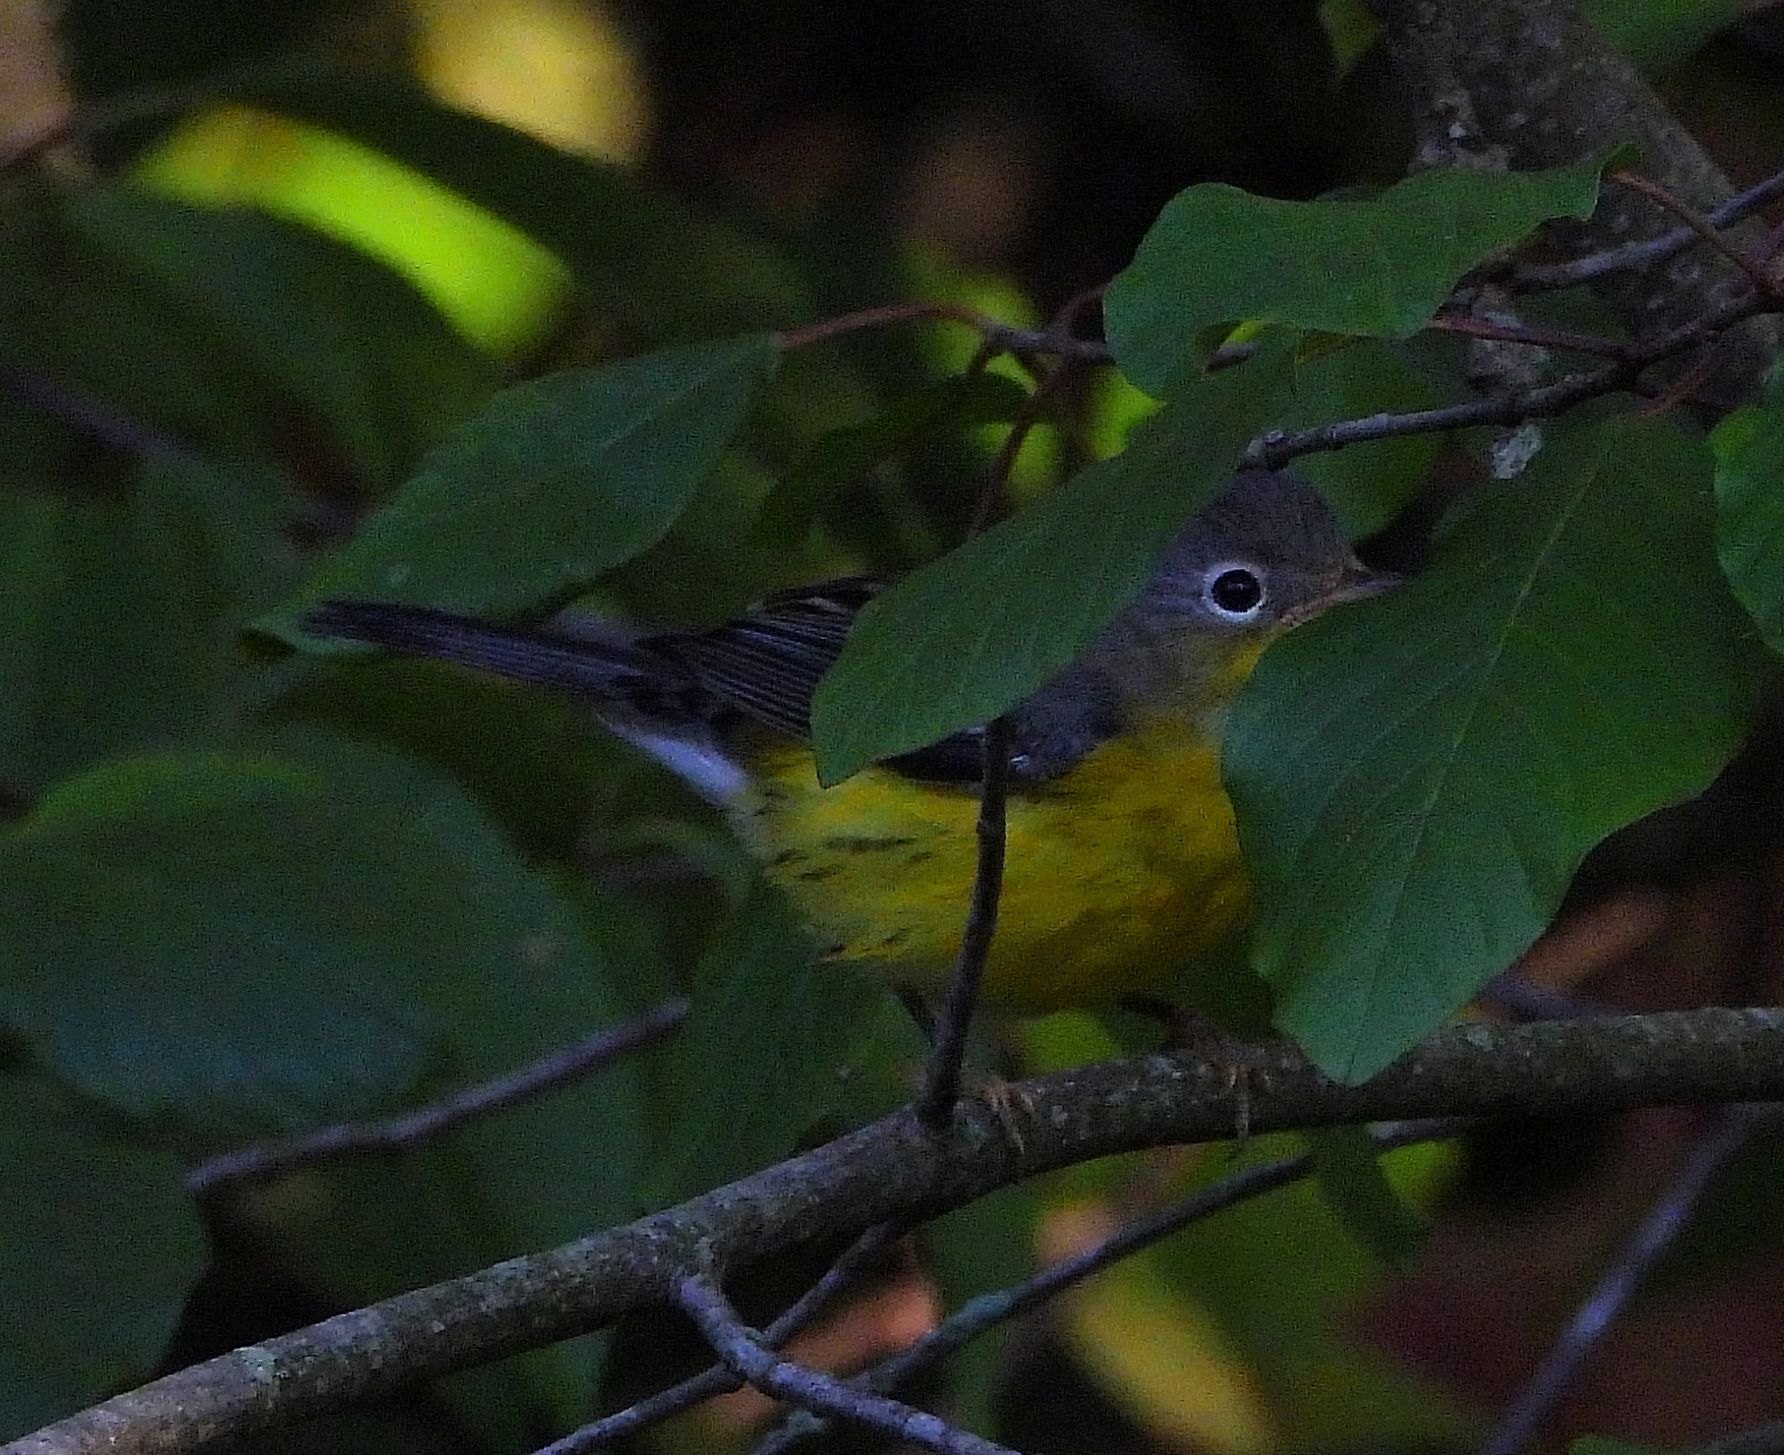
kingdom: Animalia
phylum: Chordata
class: Aves
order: Passeriformes
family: Parulidae
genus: Setophaga
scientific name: Setophaga magnolia
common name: Magnolia warbler
